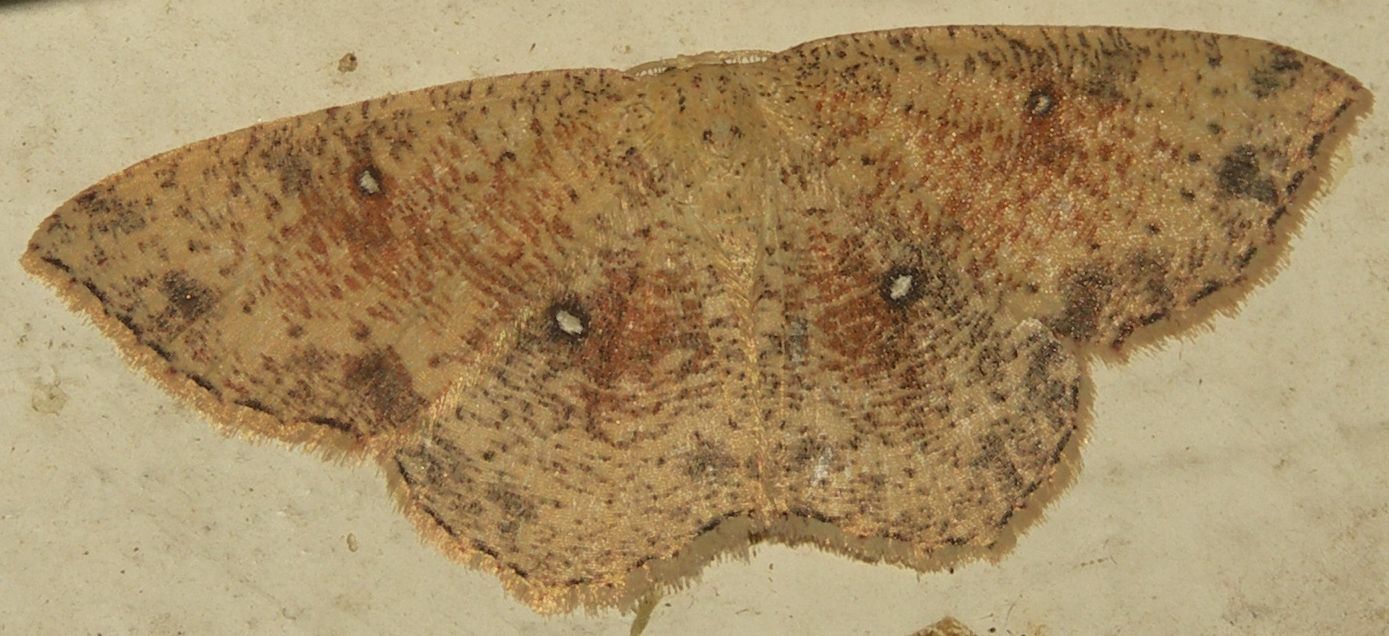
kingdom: Animalia
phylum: Arthropoda
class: Insecta
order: Lepidoptera
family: Geometridae
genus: Cyclophora
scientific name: Cyclophora porata
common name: False mocha
